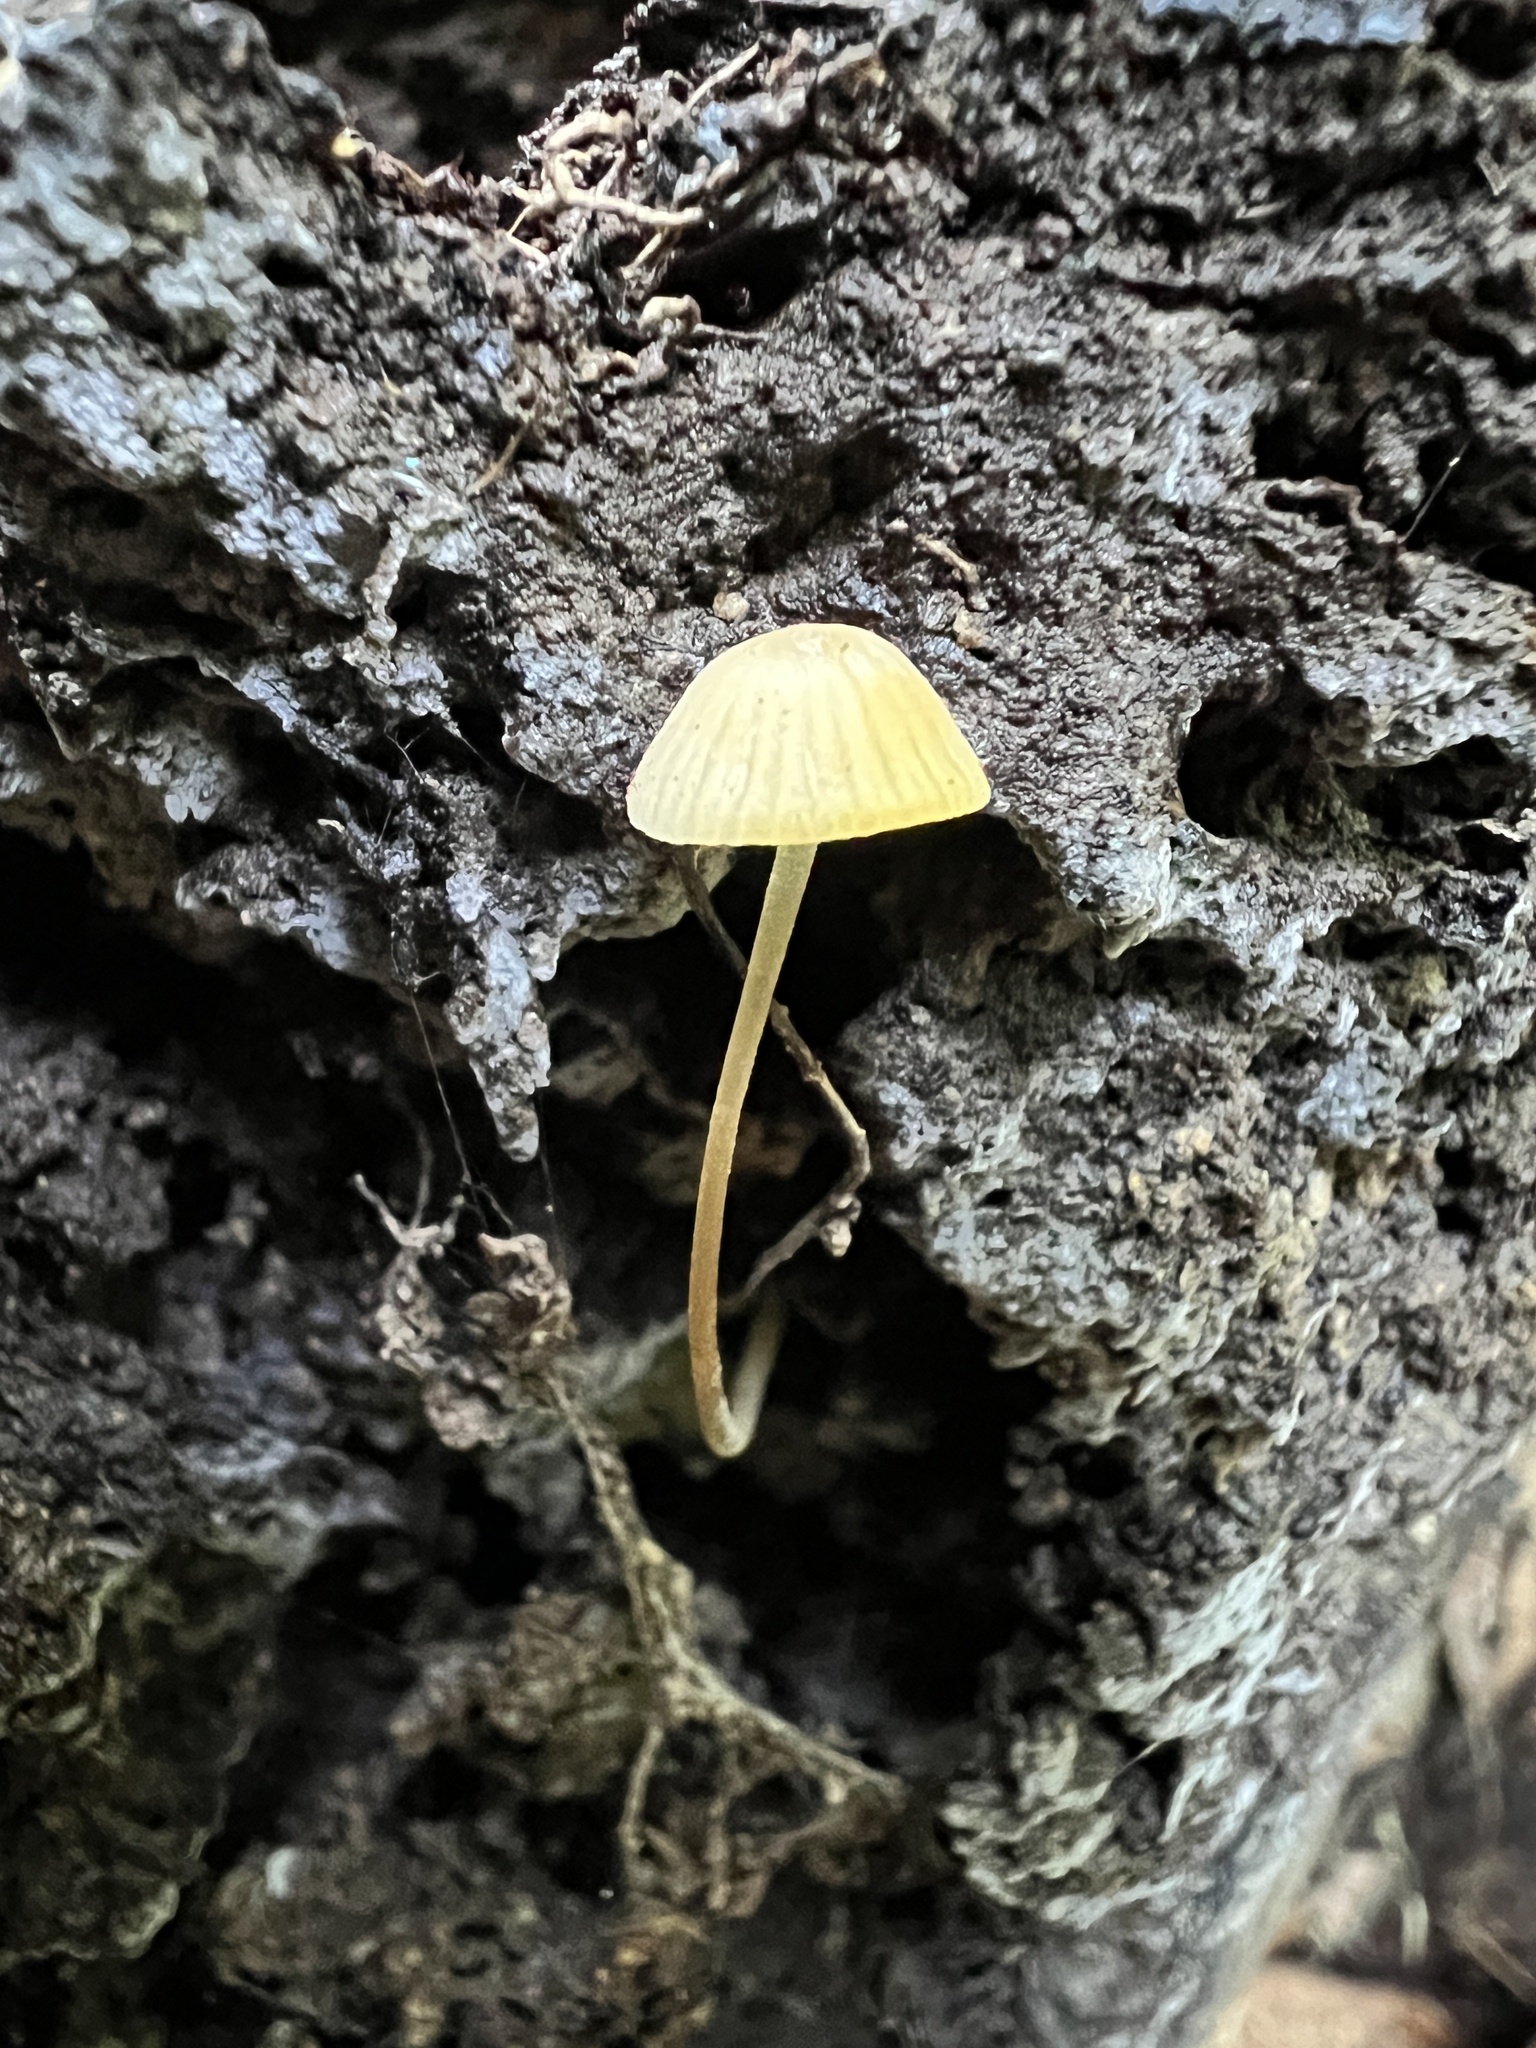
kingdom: Fungi
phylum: Basidiomycota
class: Agaricomycetes
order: Agaricales
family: Mycenaceae
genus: Mycena
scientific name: Mycena subcaerulea
